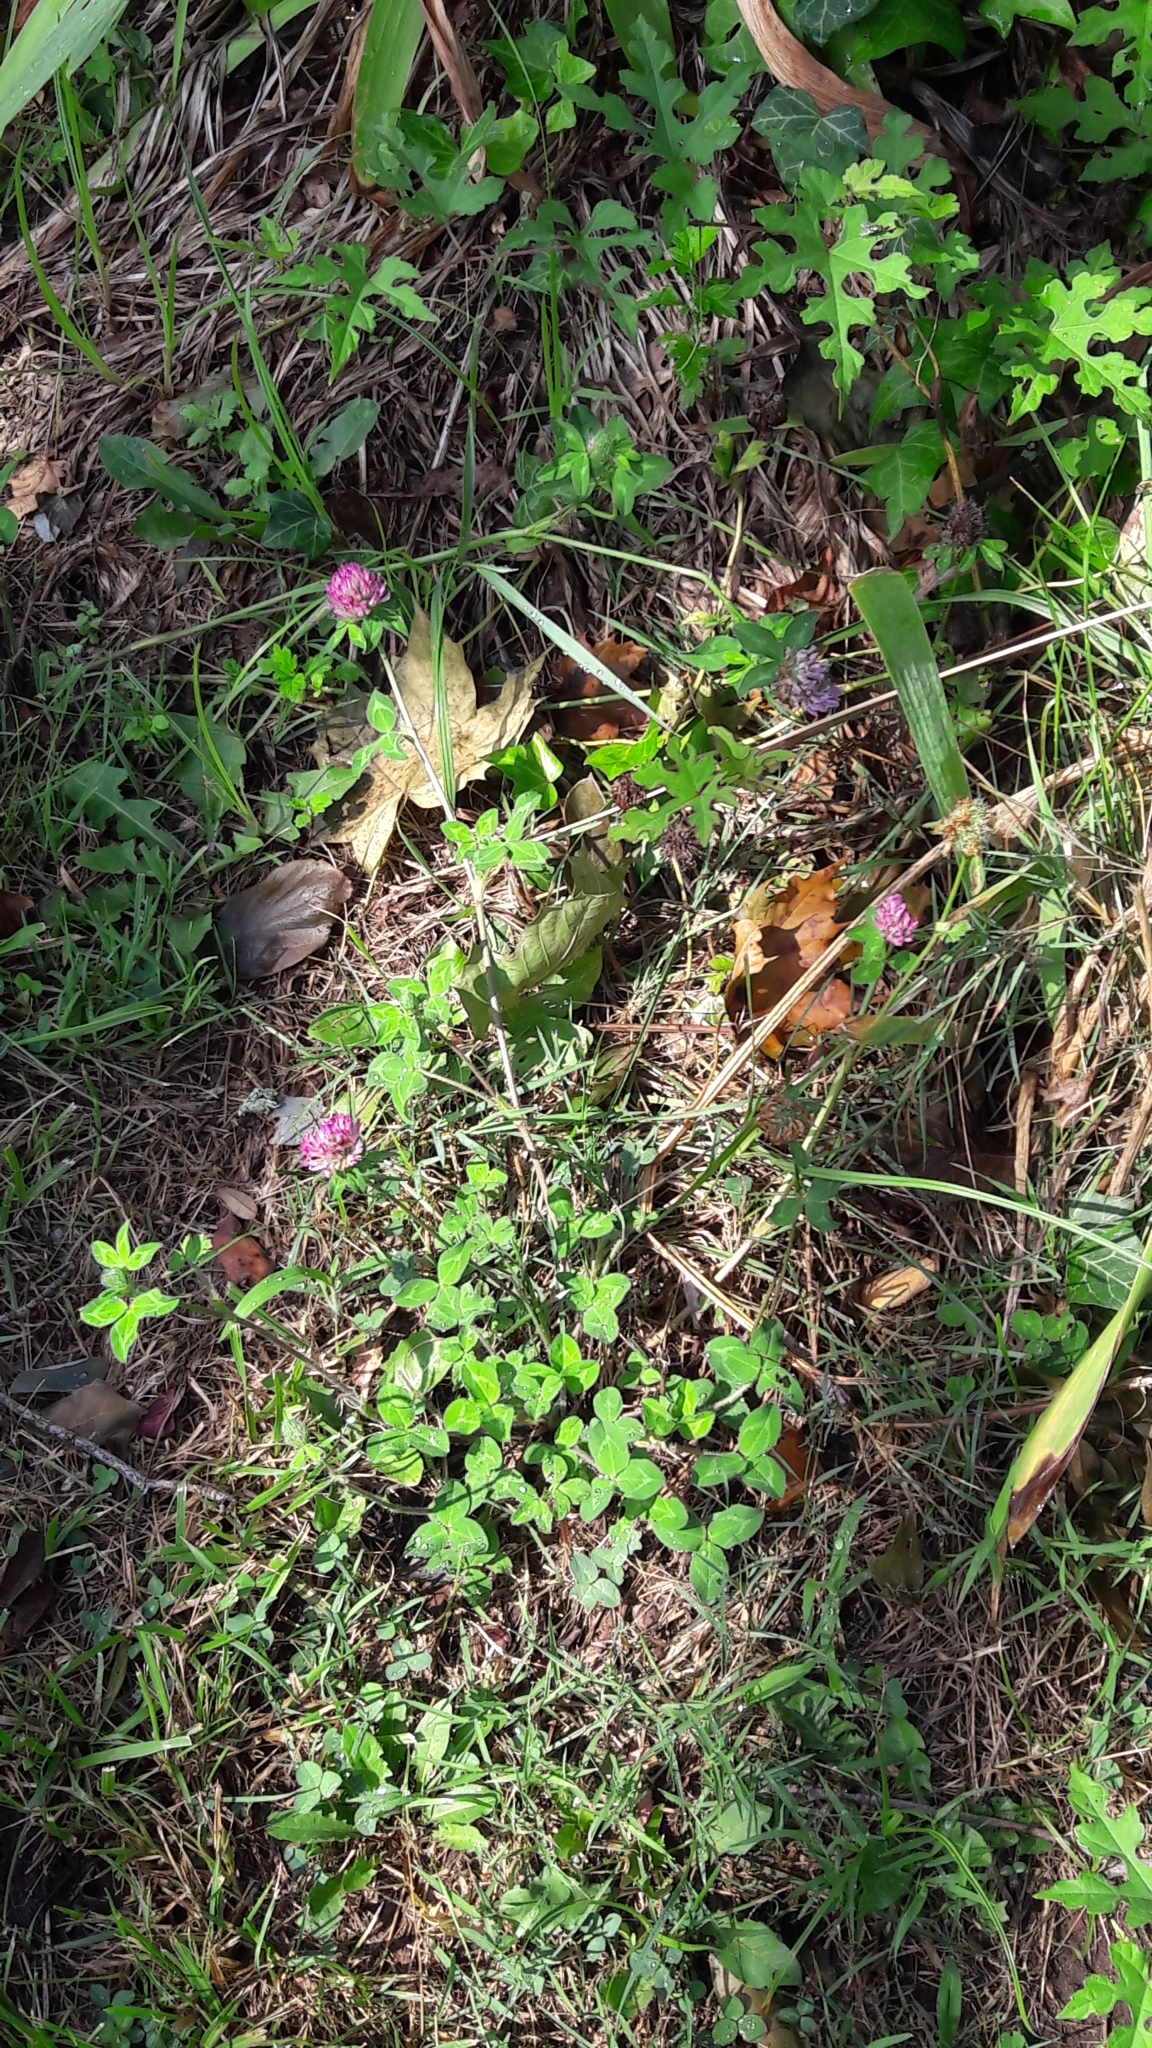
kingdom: Plantae
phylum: Tracheophyta
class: Magnoliopsida
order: Fabales
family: Fabaceae
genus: Trifolium
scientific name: Trifolium pratense
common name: Red clover
